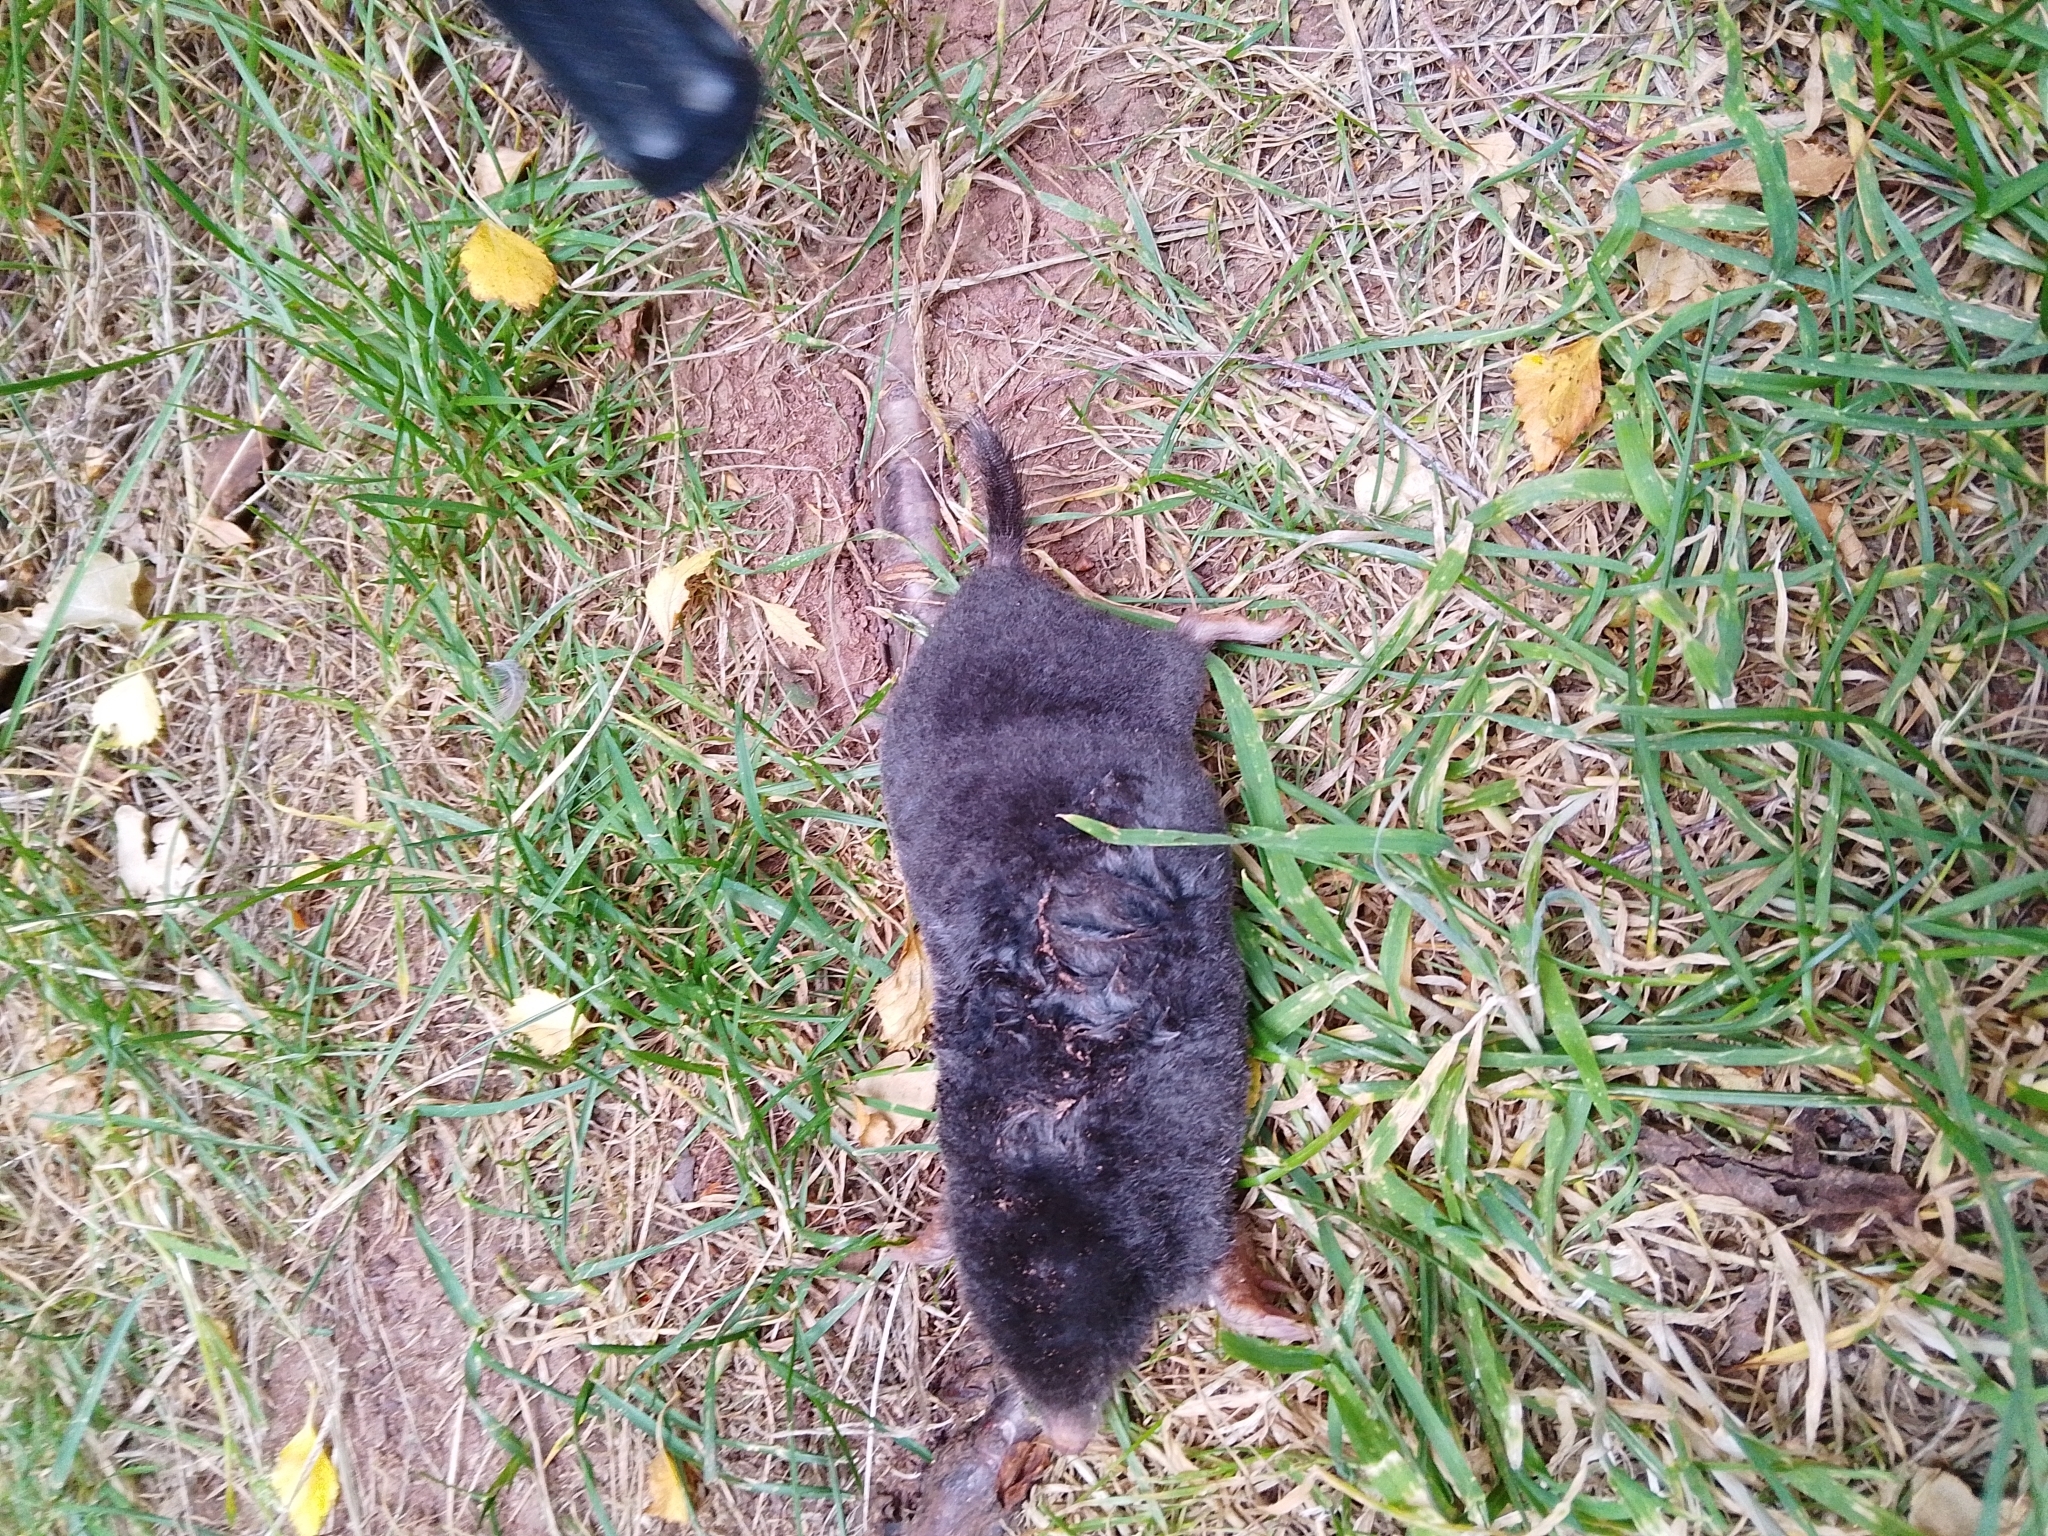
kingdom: Animalia
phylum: Chordata
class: Mammalia
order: Soricomorpha
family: Talpidae
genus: Talpa
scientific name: Talpa europaea
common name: European mole
